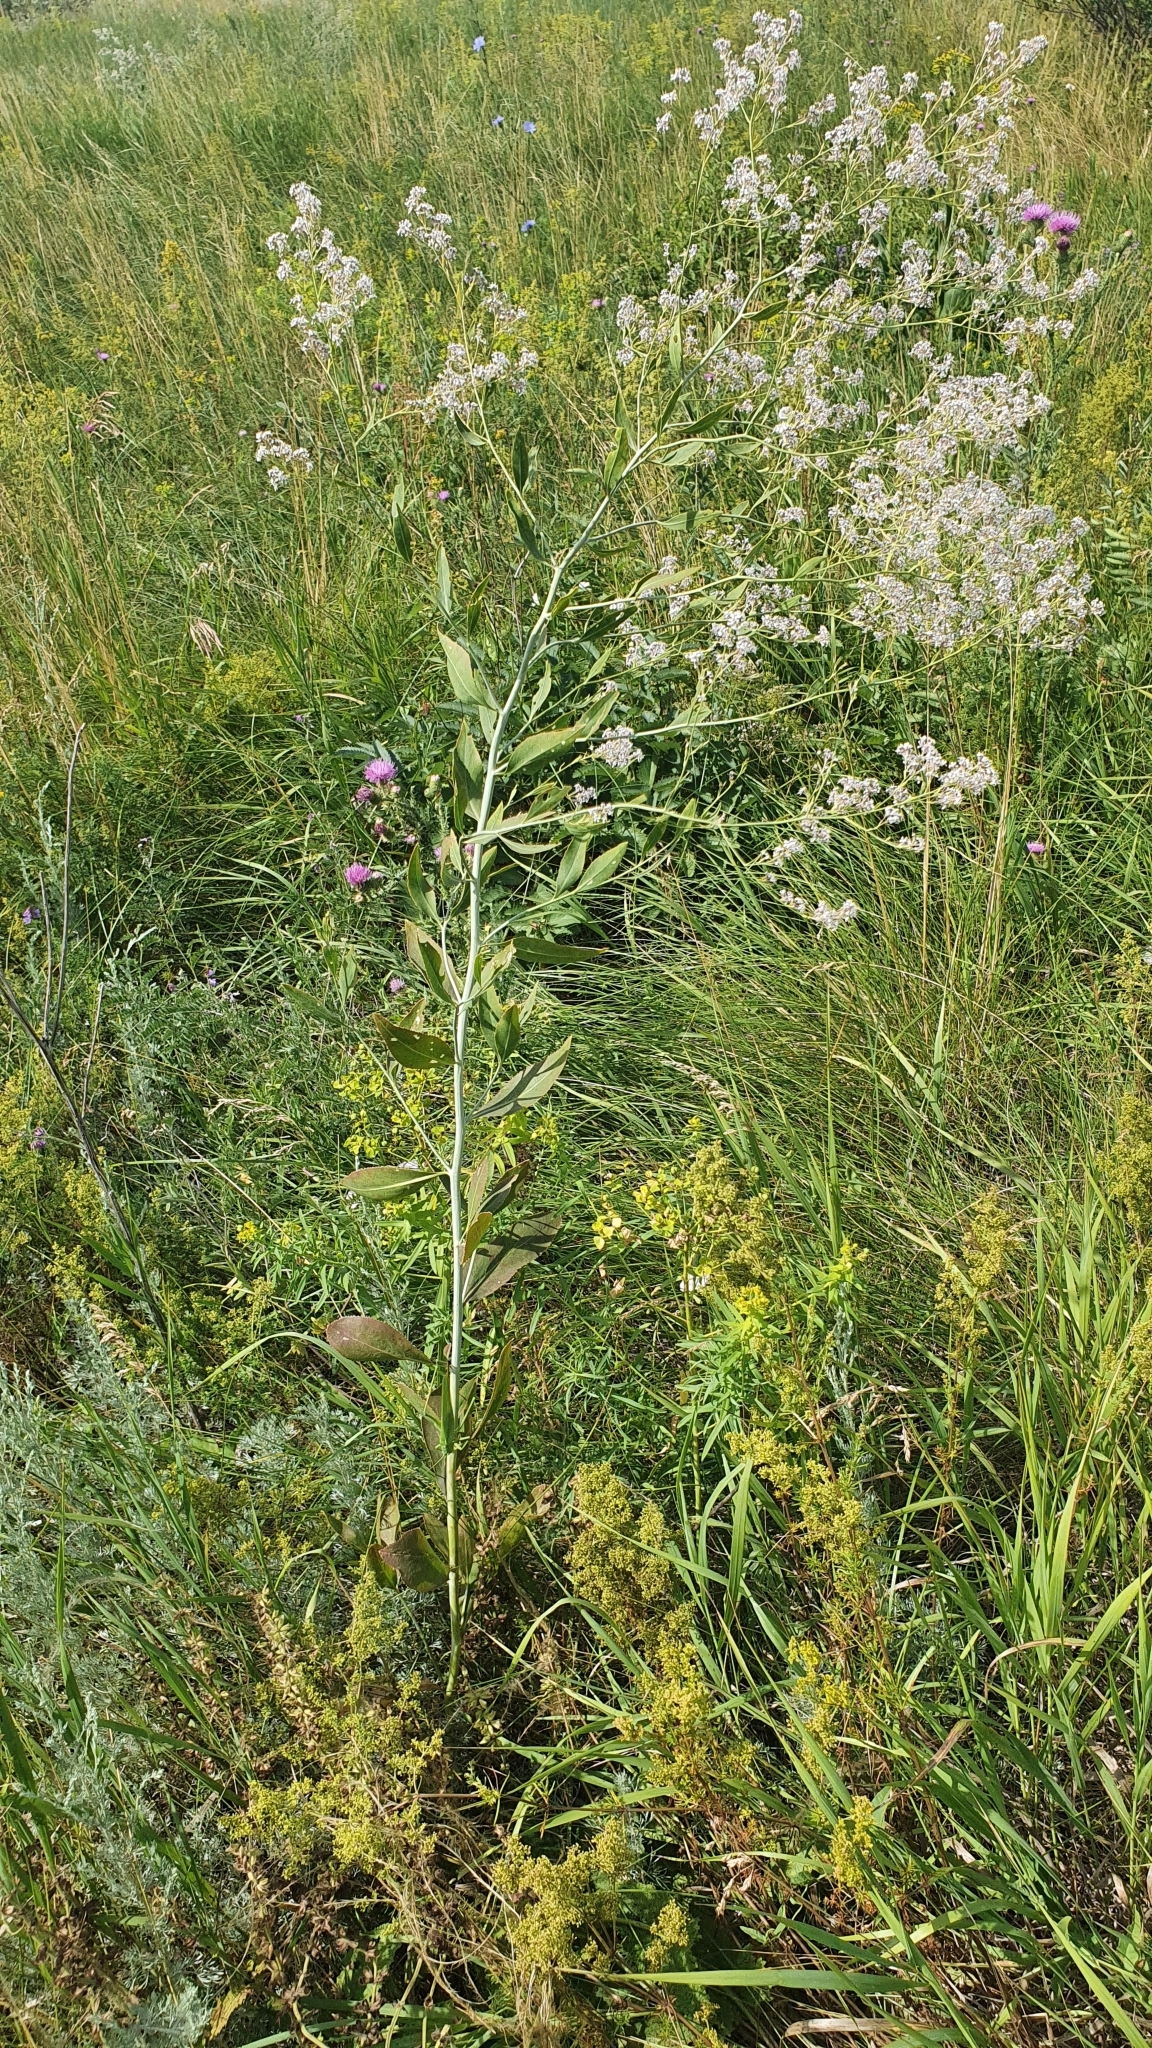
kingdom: Plantae
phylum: Tracheophyta
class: Magnoliopsida
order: Brassicales
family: Brassicaceae
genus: Lepidium
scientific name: Lepidium latifolium
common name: Dittander
